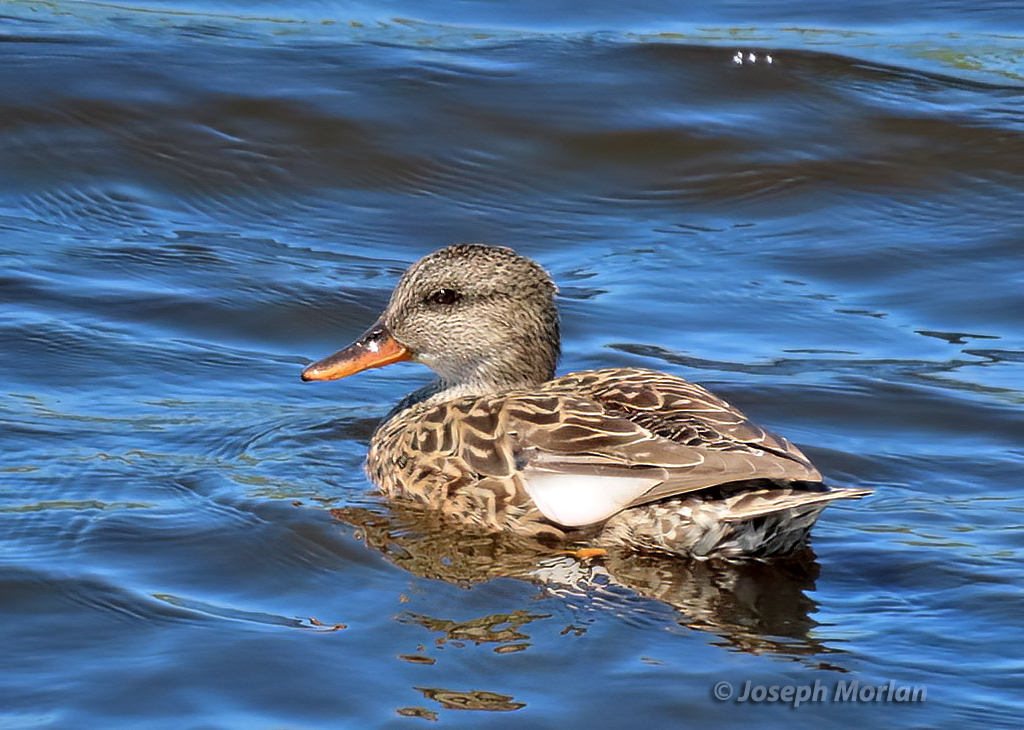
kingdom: Animalia
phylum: Chordata
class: Aves
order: Anseriformes
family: Anatidae
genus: Mareca
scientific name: Mareca strepera
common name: Gadwall
